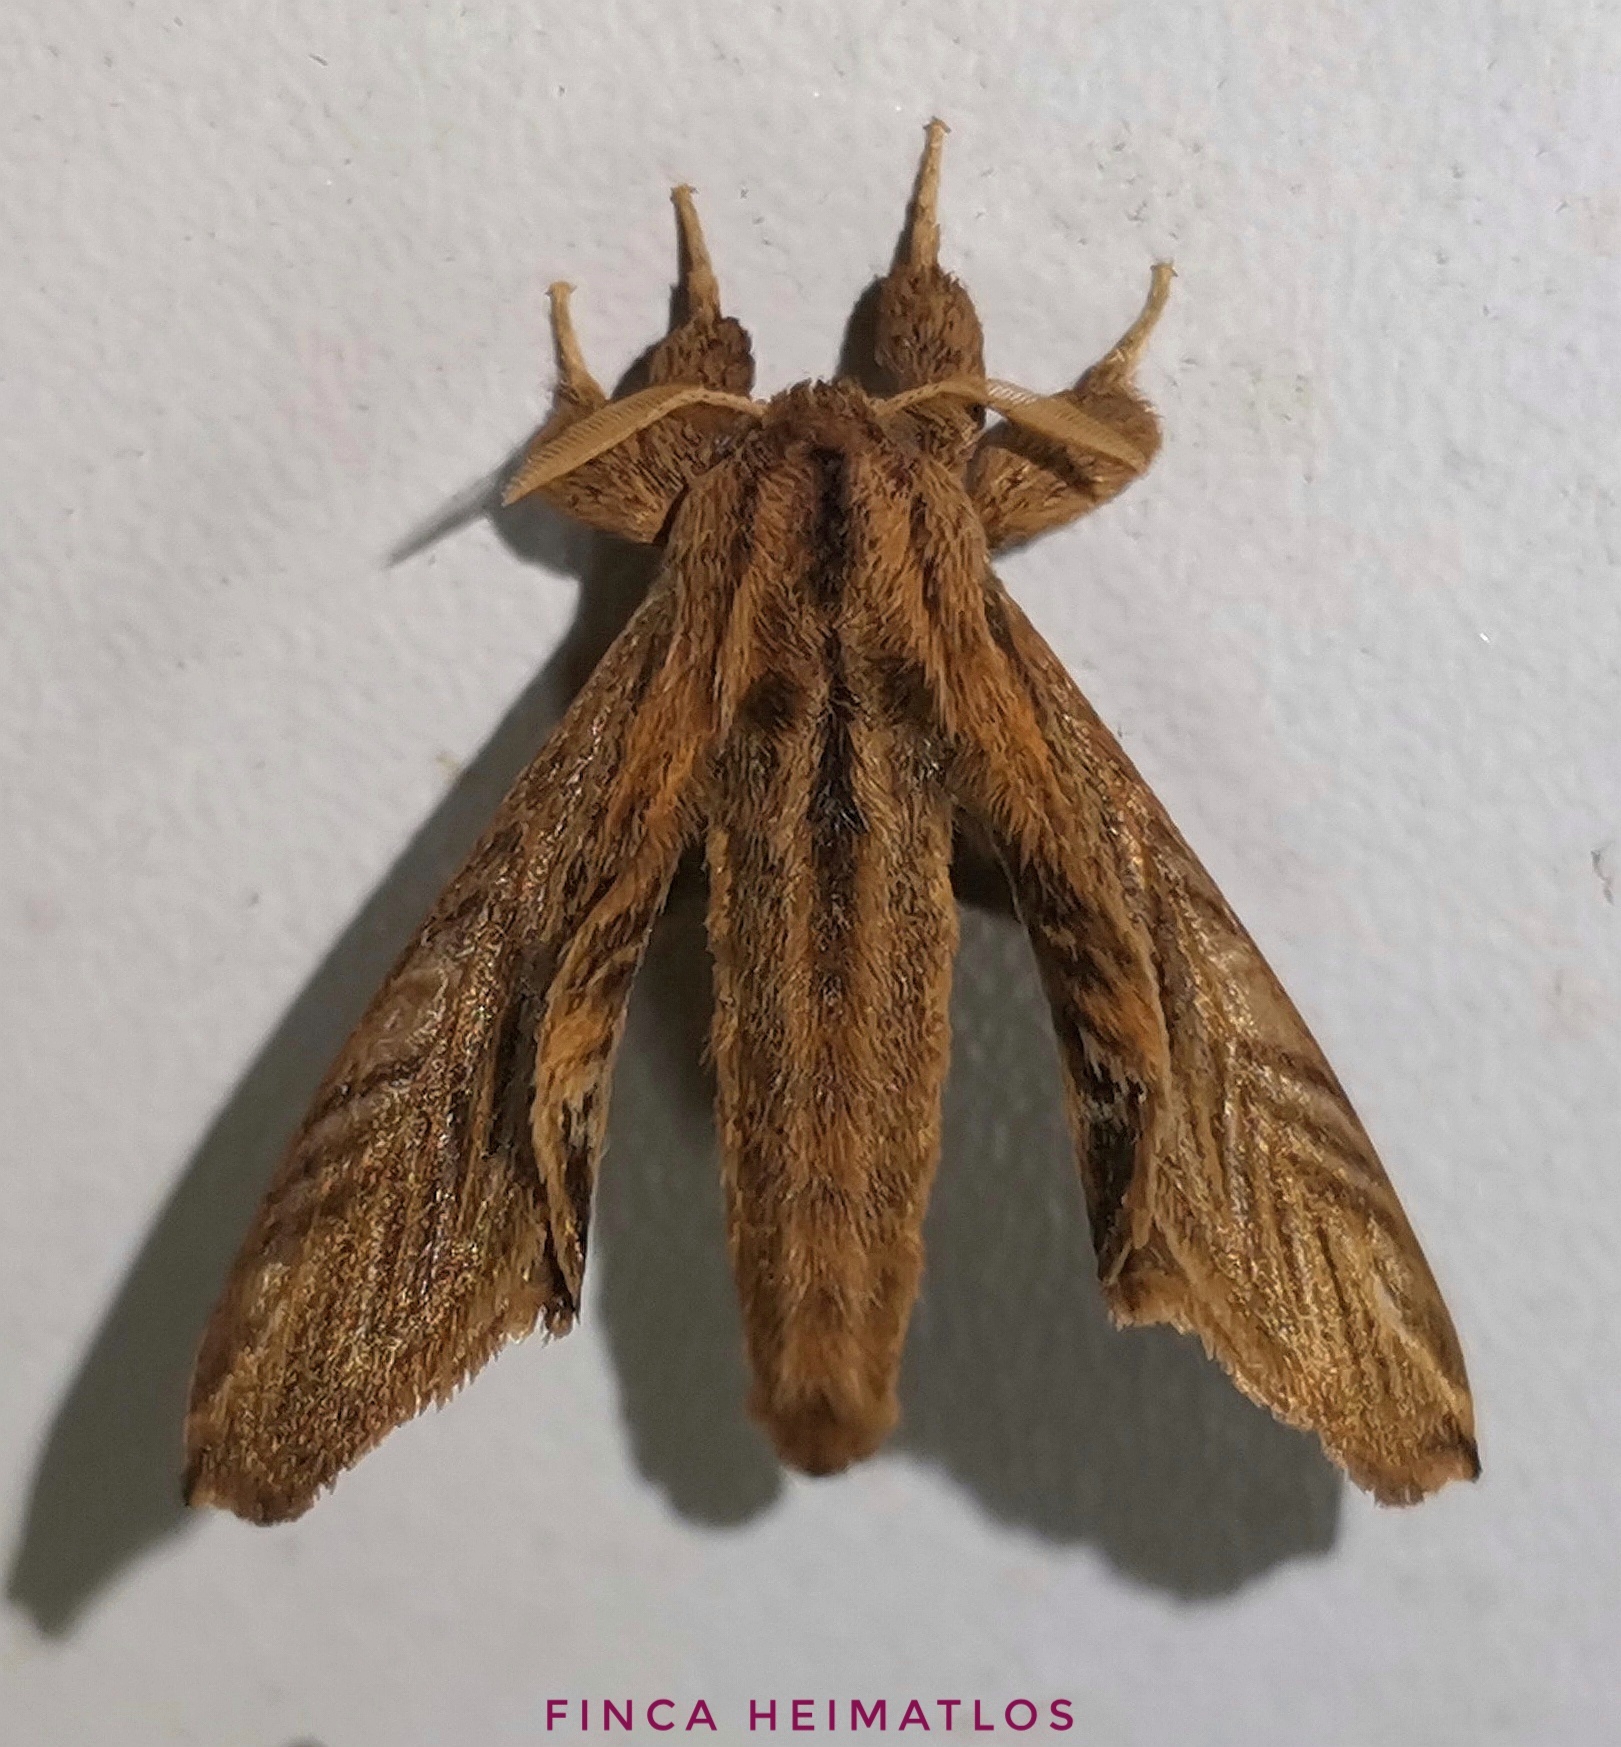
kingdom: Animalia
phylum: Arthropoda
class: Insecta
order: Lepidoptera
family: Apatelodidae
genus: Hygrochroa
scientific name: Hygrochroa Apatelodes striata
